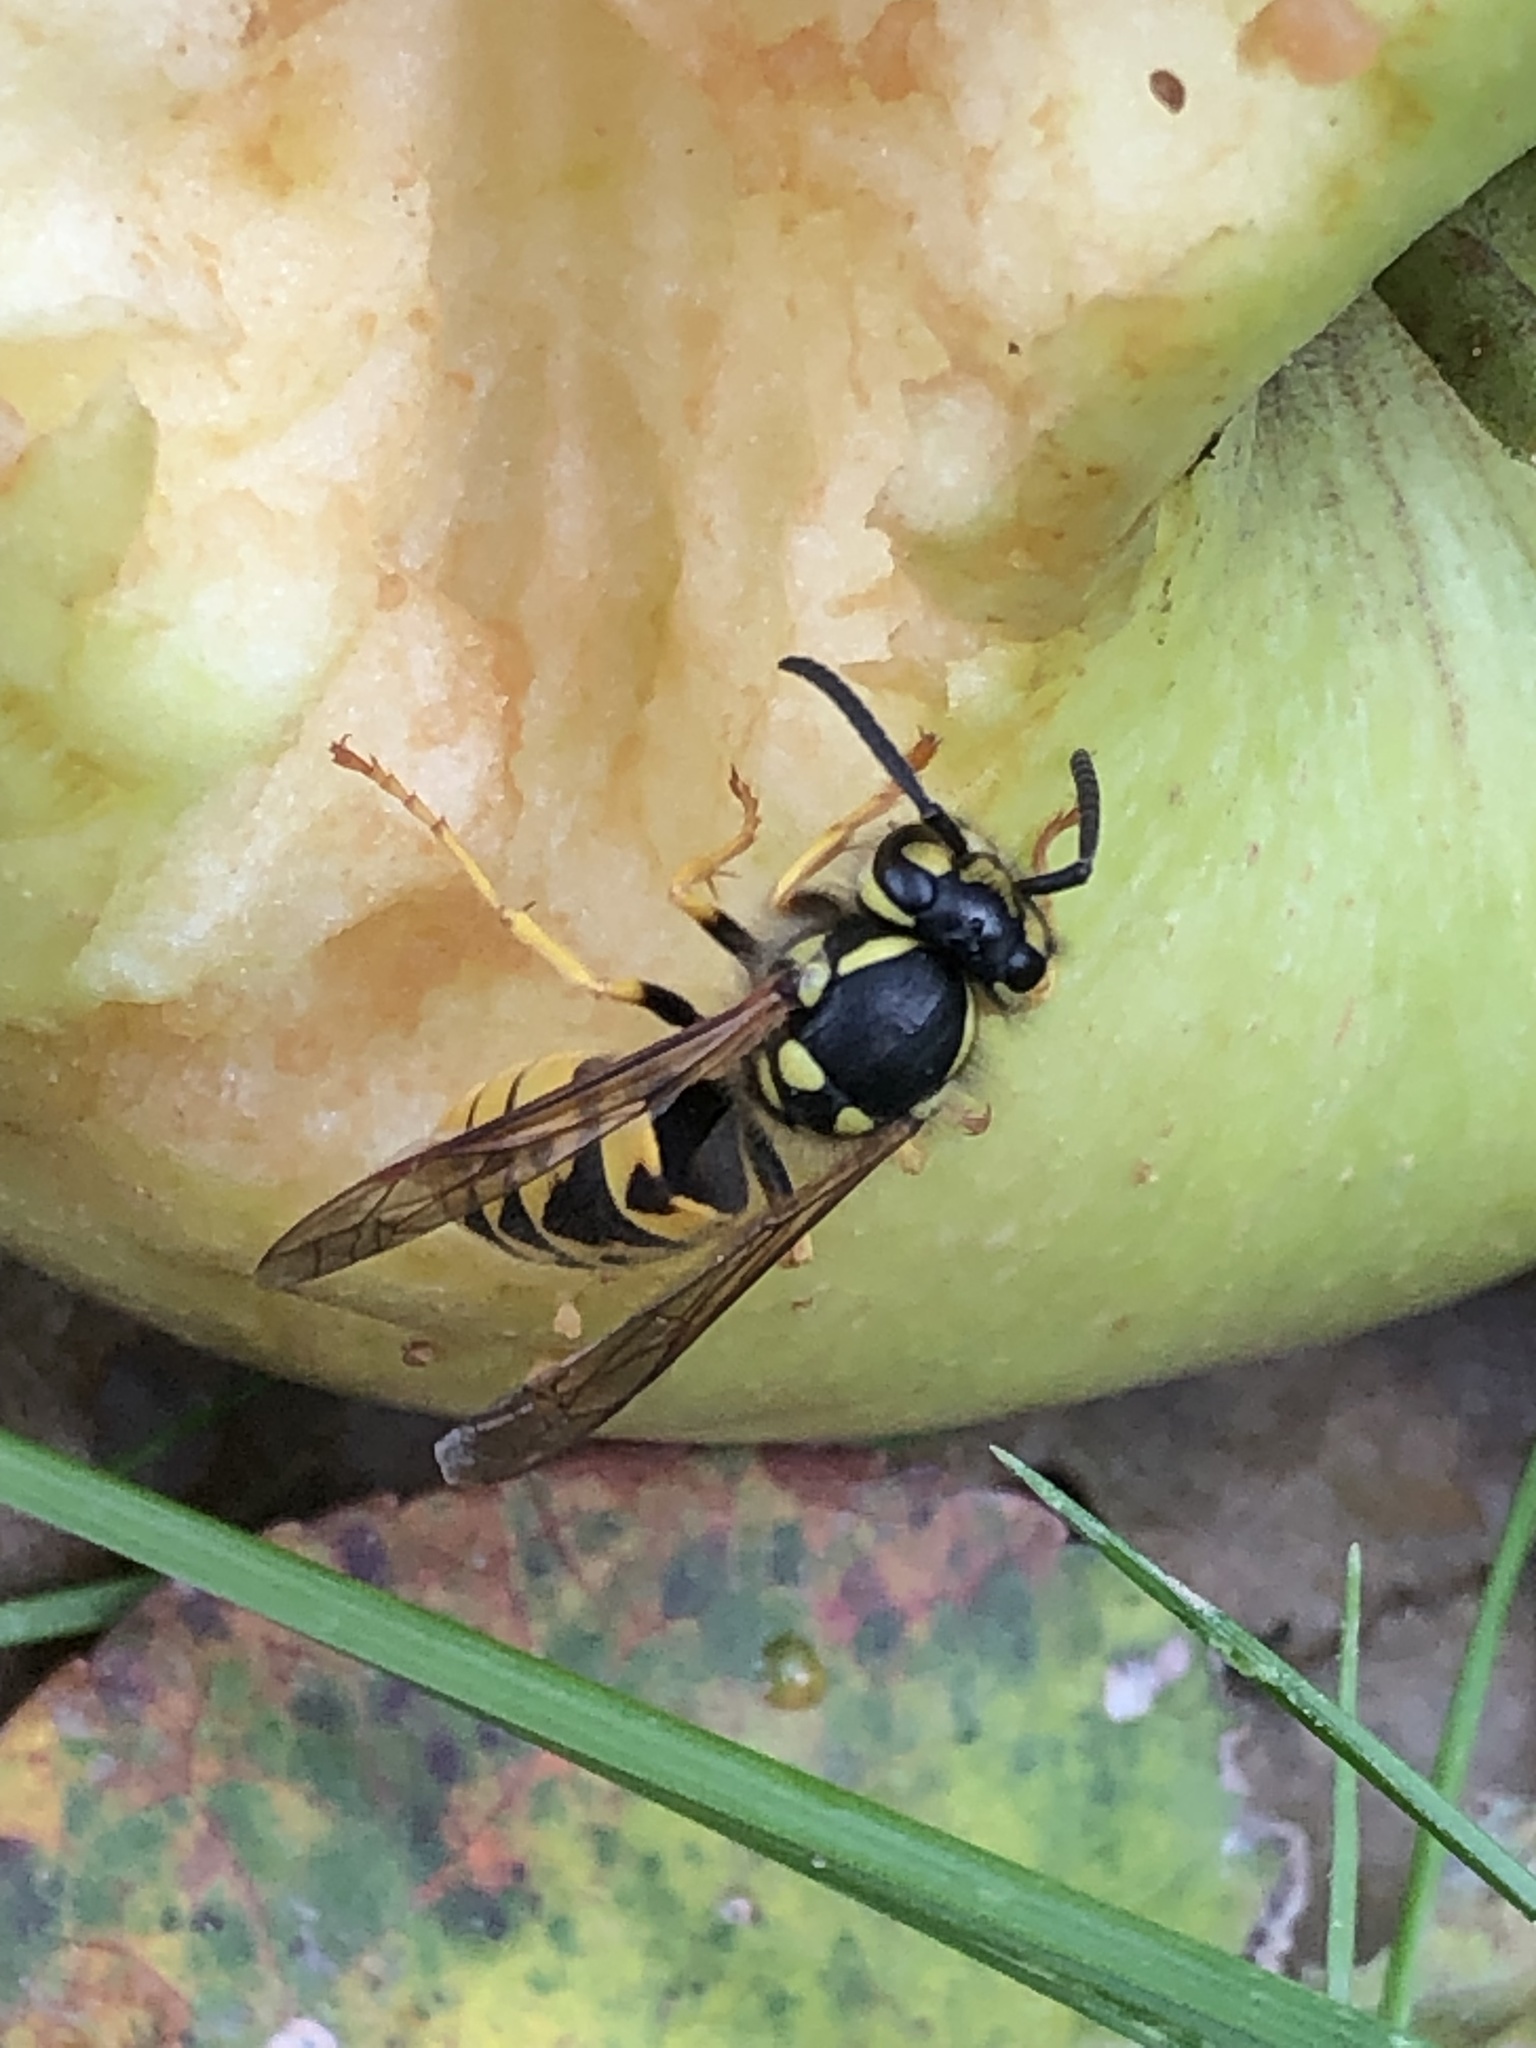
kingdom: Animalia
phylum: Arthropoda
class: Insecta
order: Hymenoptera
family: Vespidae
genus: Vespula
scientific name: Vespula germanica
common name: German wasp
